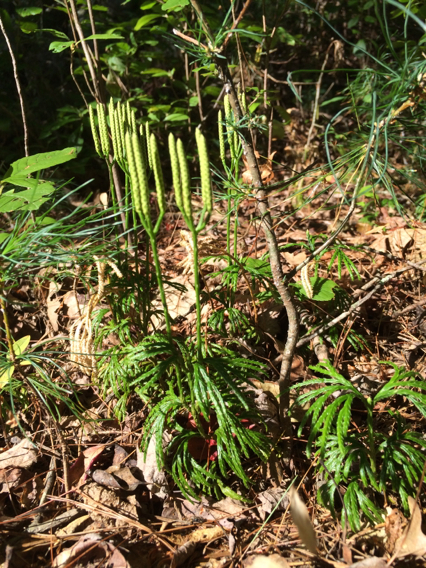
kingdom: Plantae
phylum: Tracheophyta
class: Lycopodiopsida
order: Lycopodiales
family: Lycopodiaceae
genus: Diphasiastrum
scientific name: Diphasiastrum digitatum
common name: Southern running-pine
